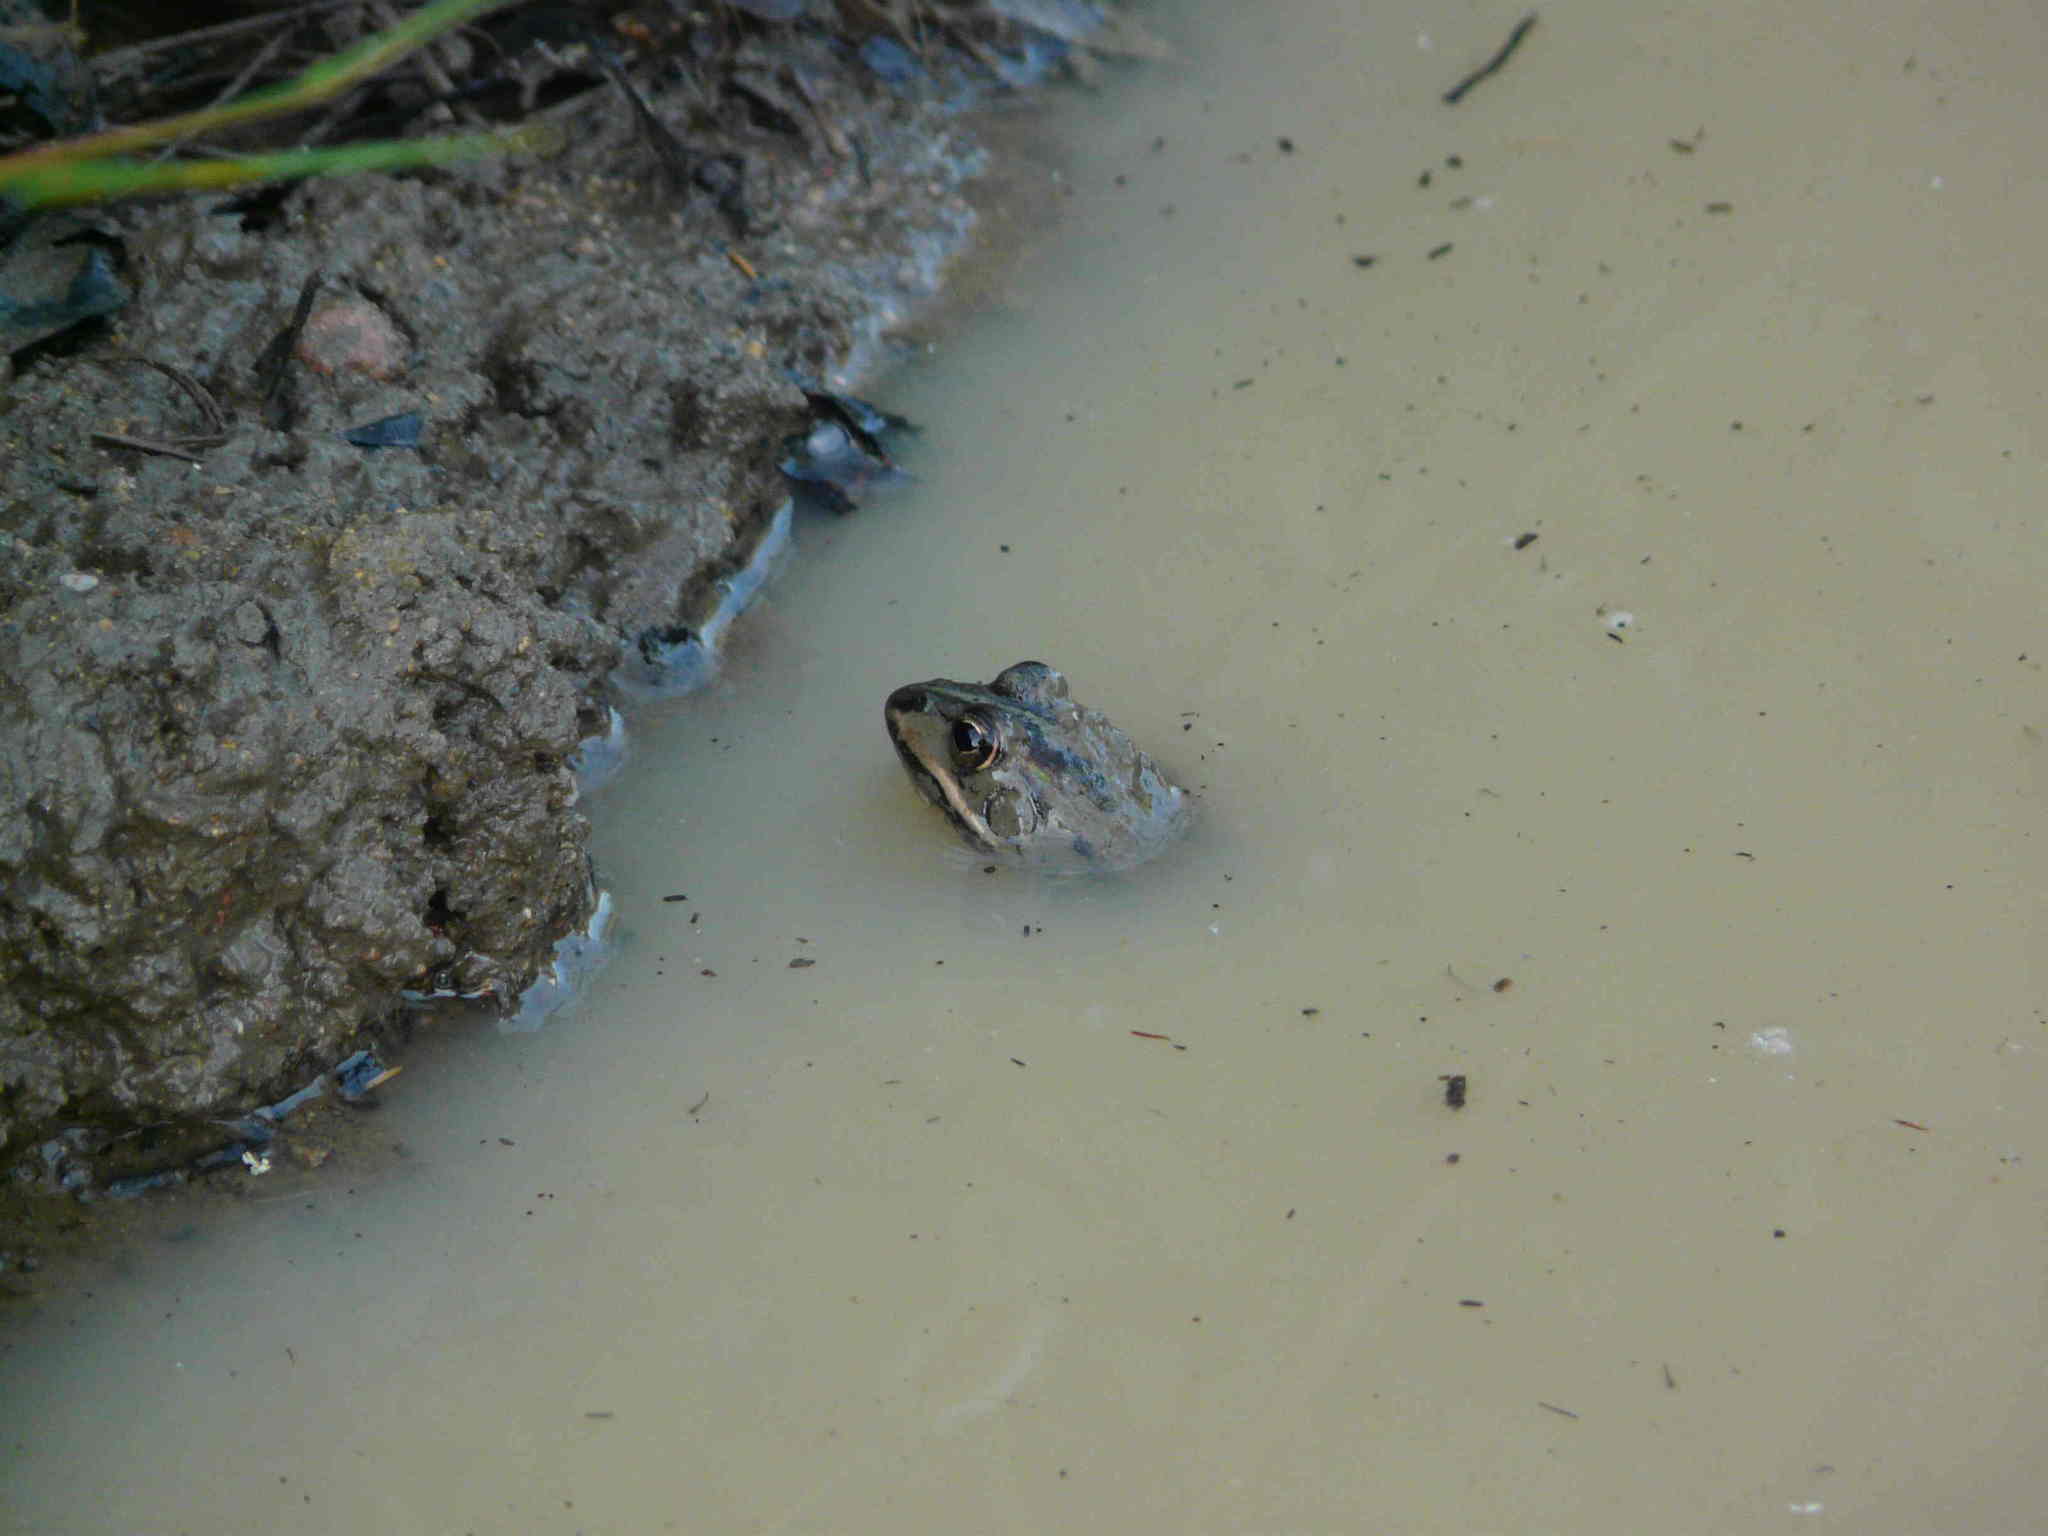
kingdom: Animalia
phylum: Chordata
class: Amphibia
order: Anura
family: Ranidae
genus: Pelophylax
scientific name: Pelophylax bergeri
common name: Italian pool frog
